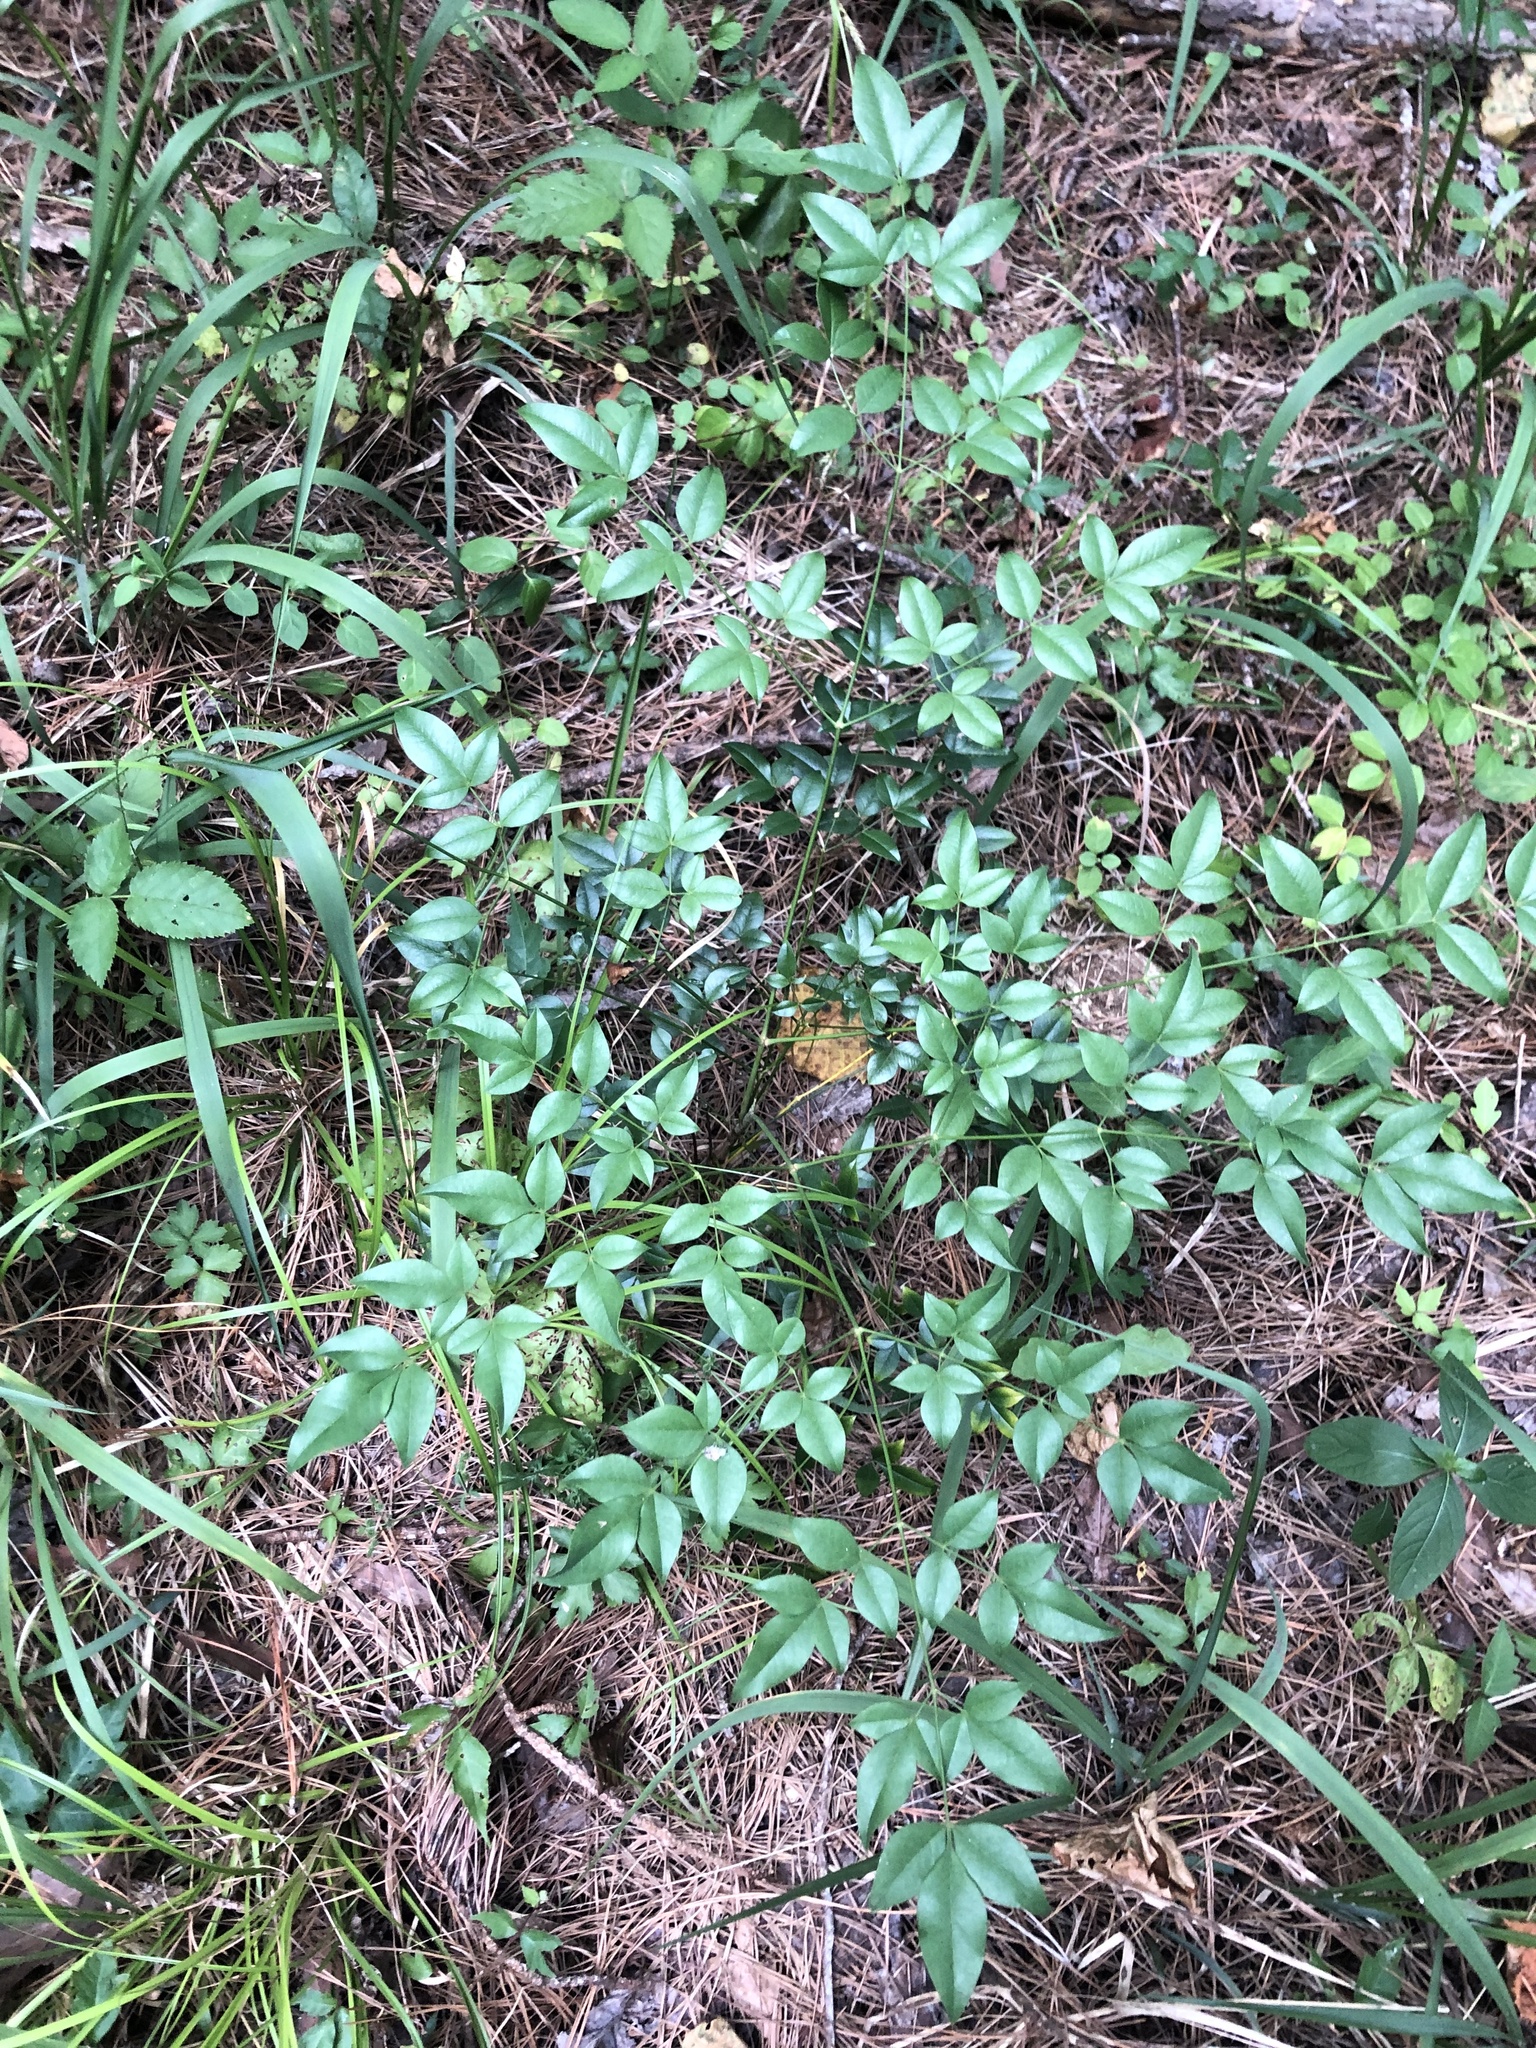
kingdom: Plantae
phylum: Tracheophyta
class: Magnoliopsida
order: Ranunculales
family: Berberidaceae
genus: Nandina
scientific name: Nandina domestica
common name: Sacred bamboo
